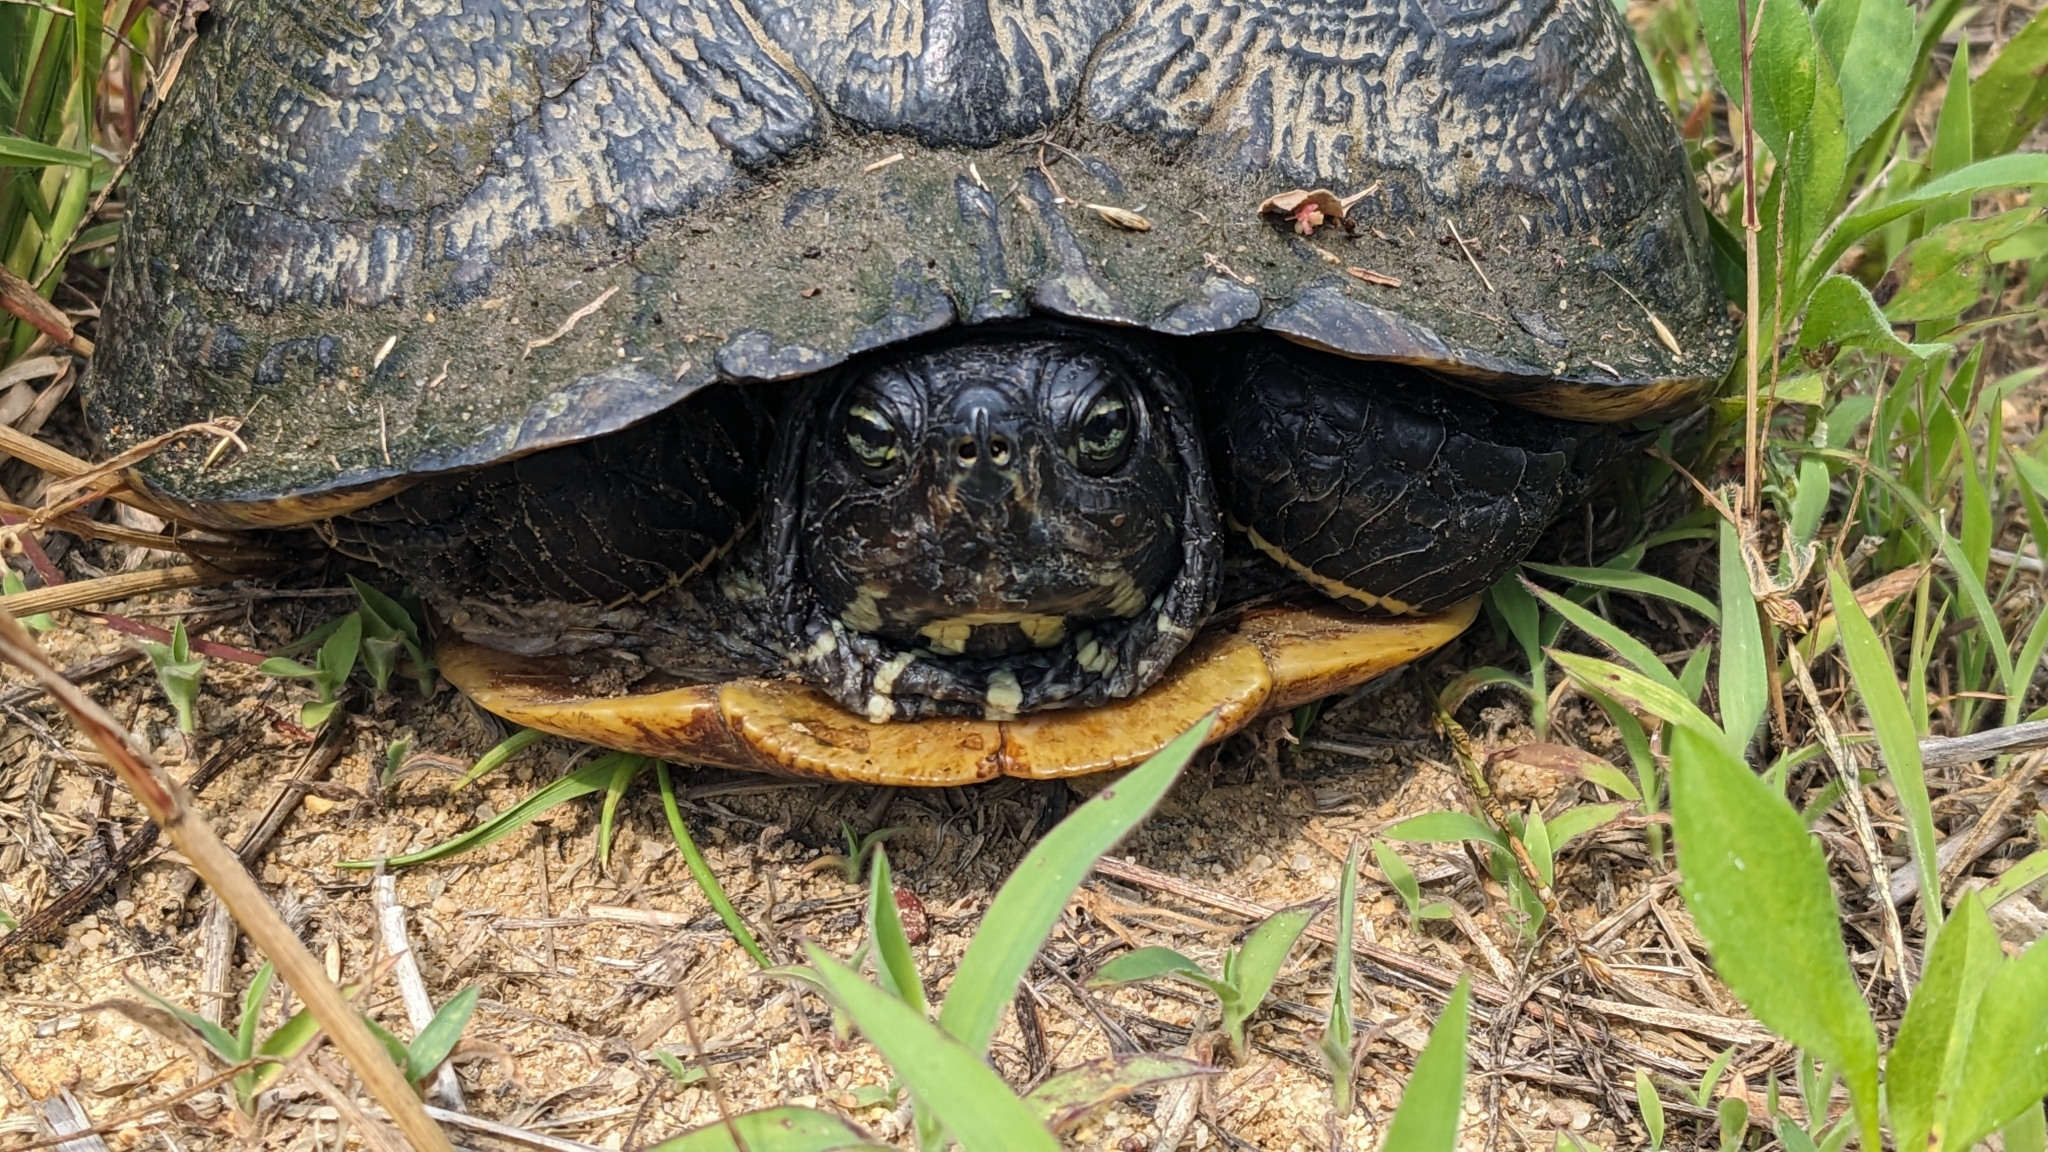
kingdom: Animalia
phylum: Chordata
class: Testudines
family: Emydidae
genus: Trachemys
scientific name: Trachemys scripta
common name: Slider
